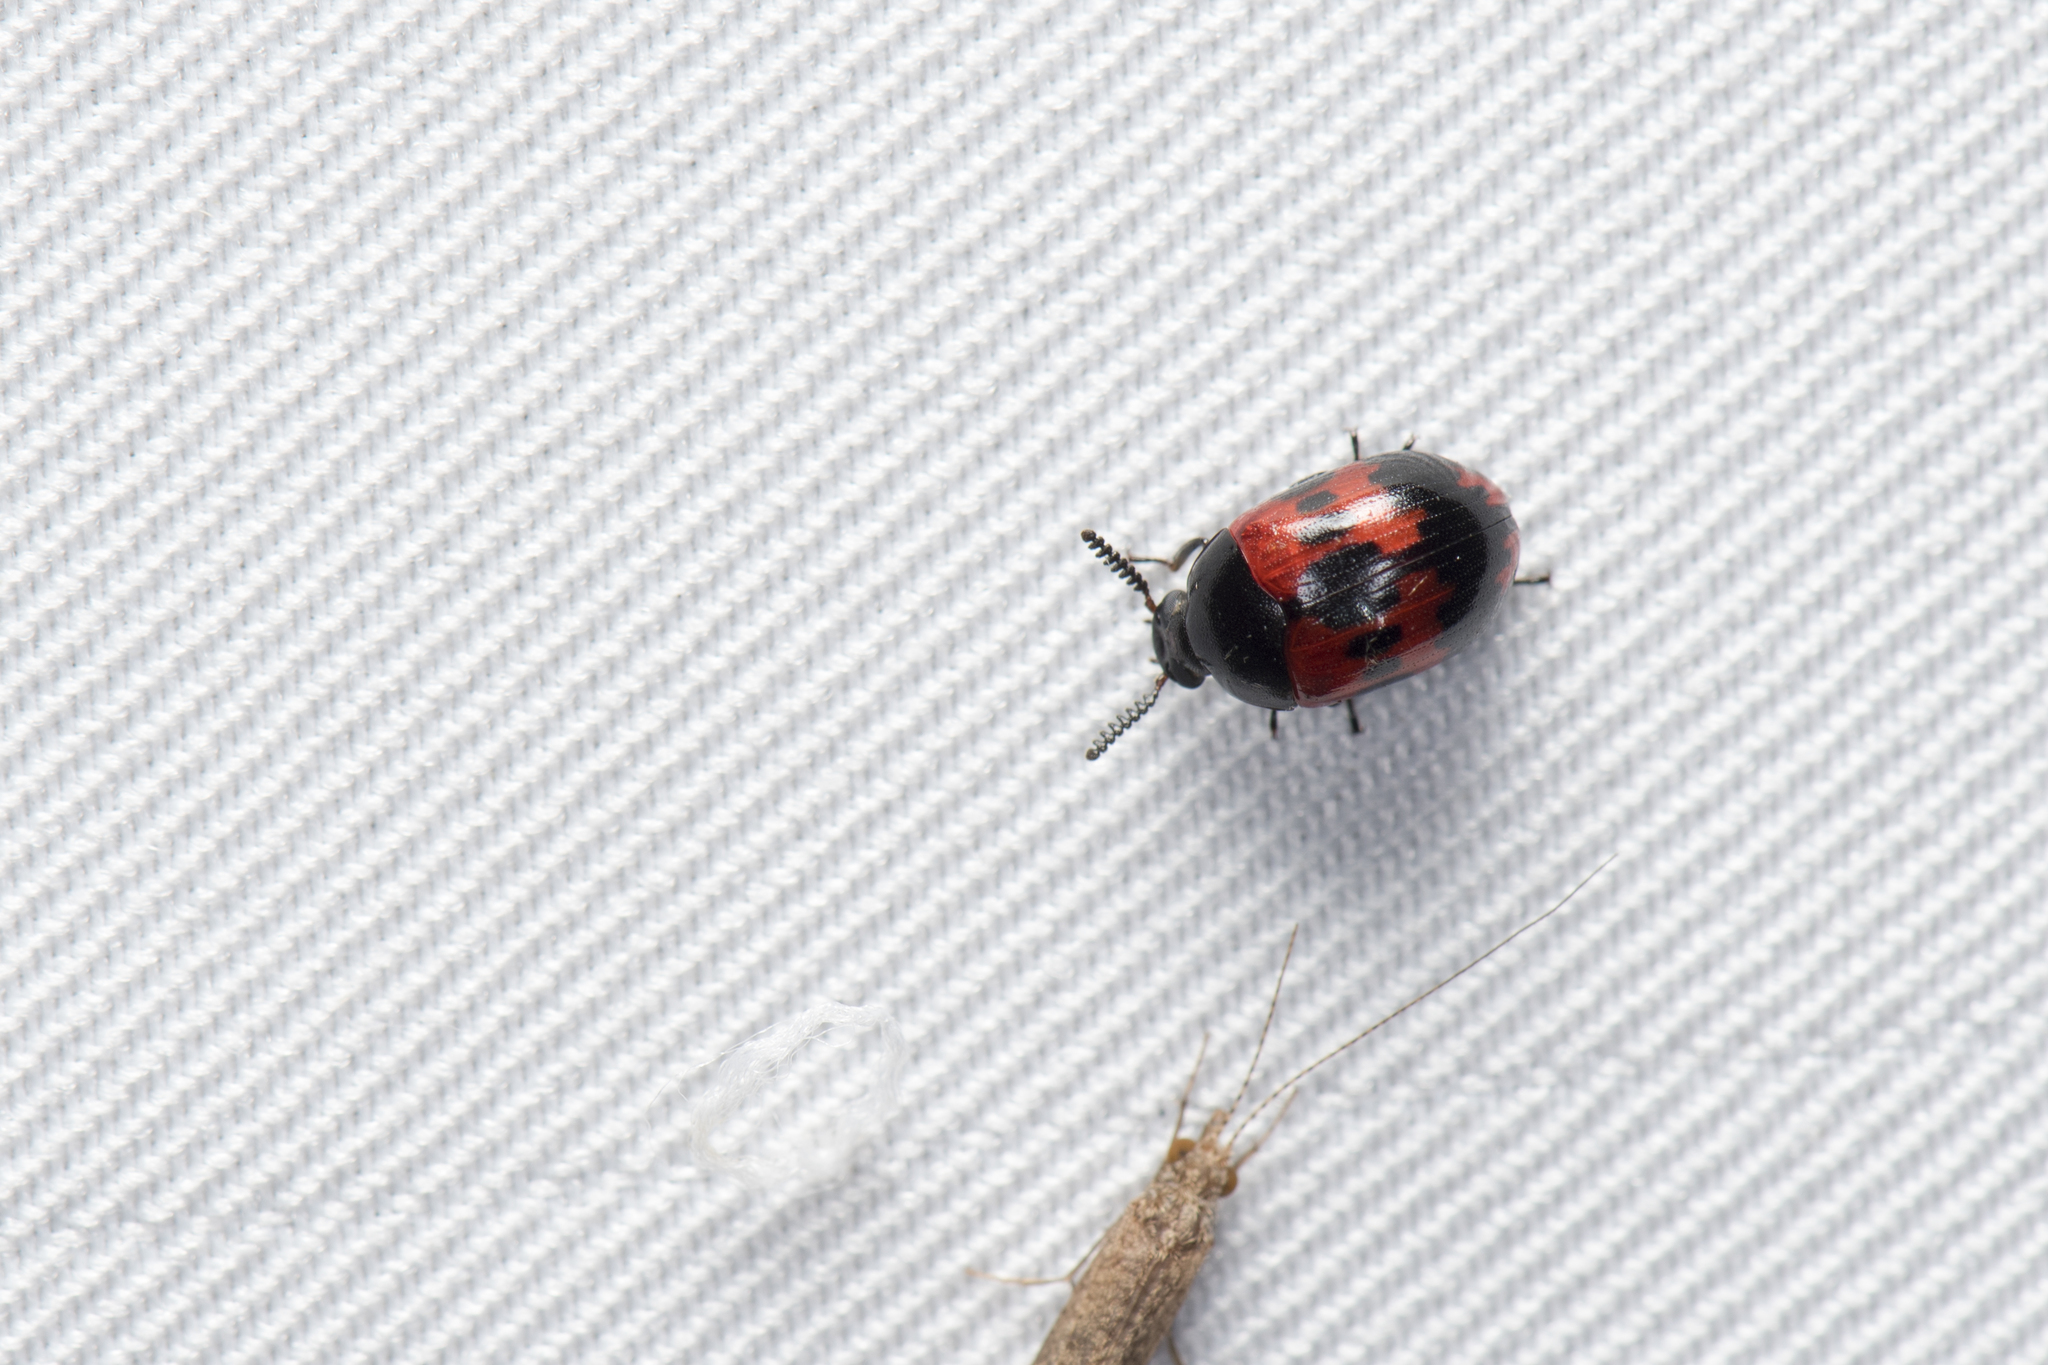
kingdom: Animalia
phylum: Arthropoda
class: Insecta
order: Coleoptera
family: Tenebrionidae
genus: Diaperis
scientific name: Diaperis lewisi
